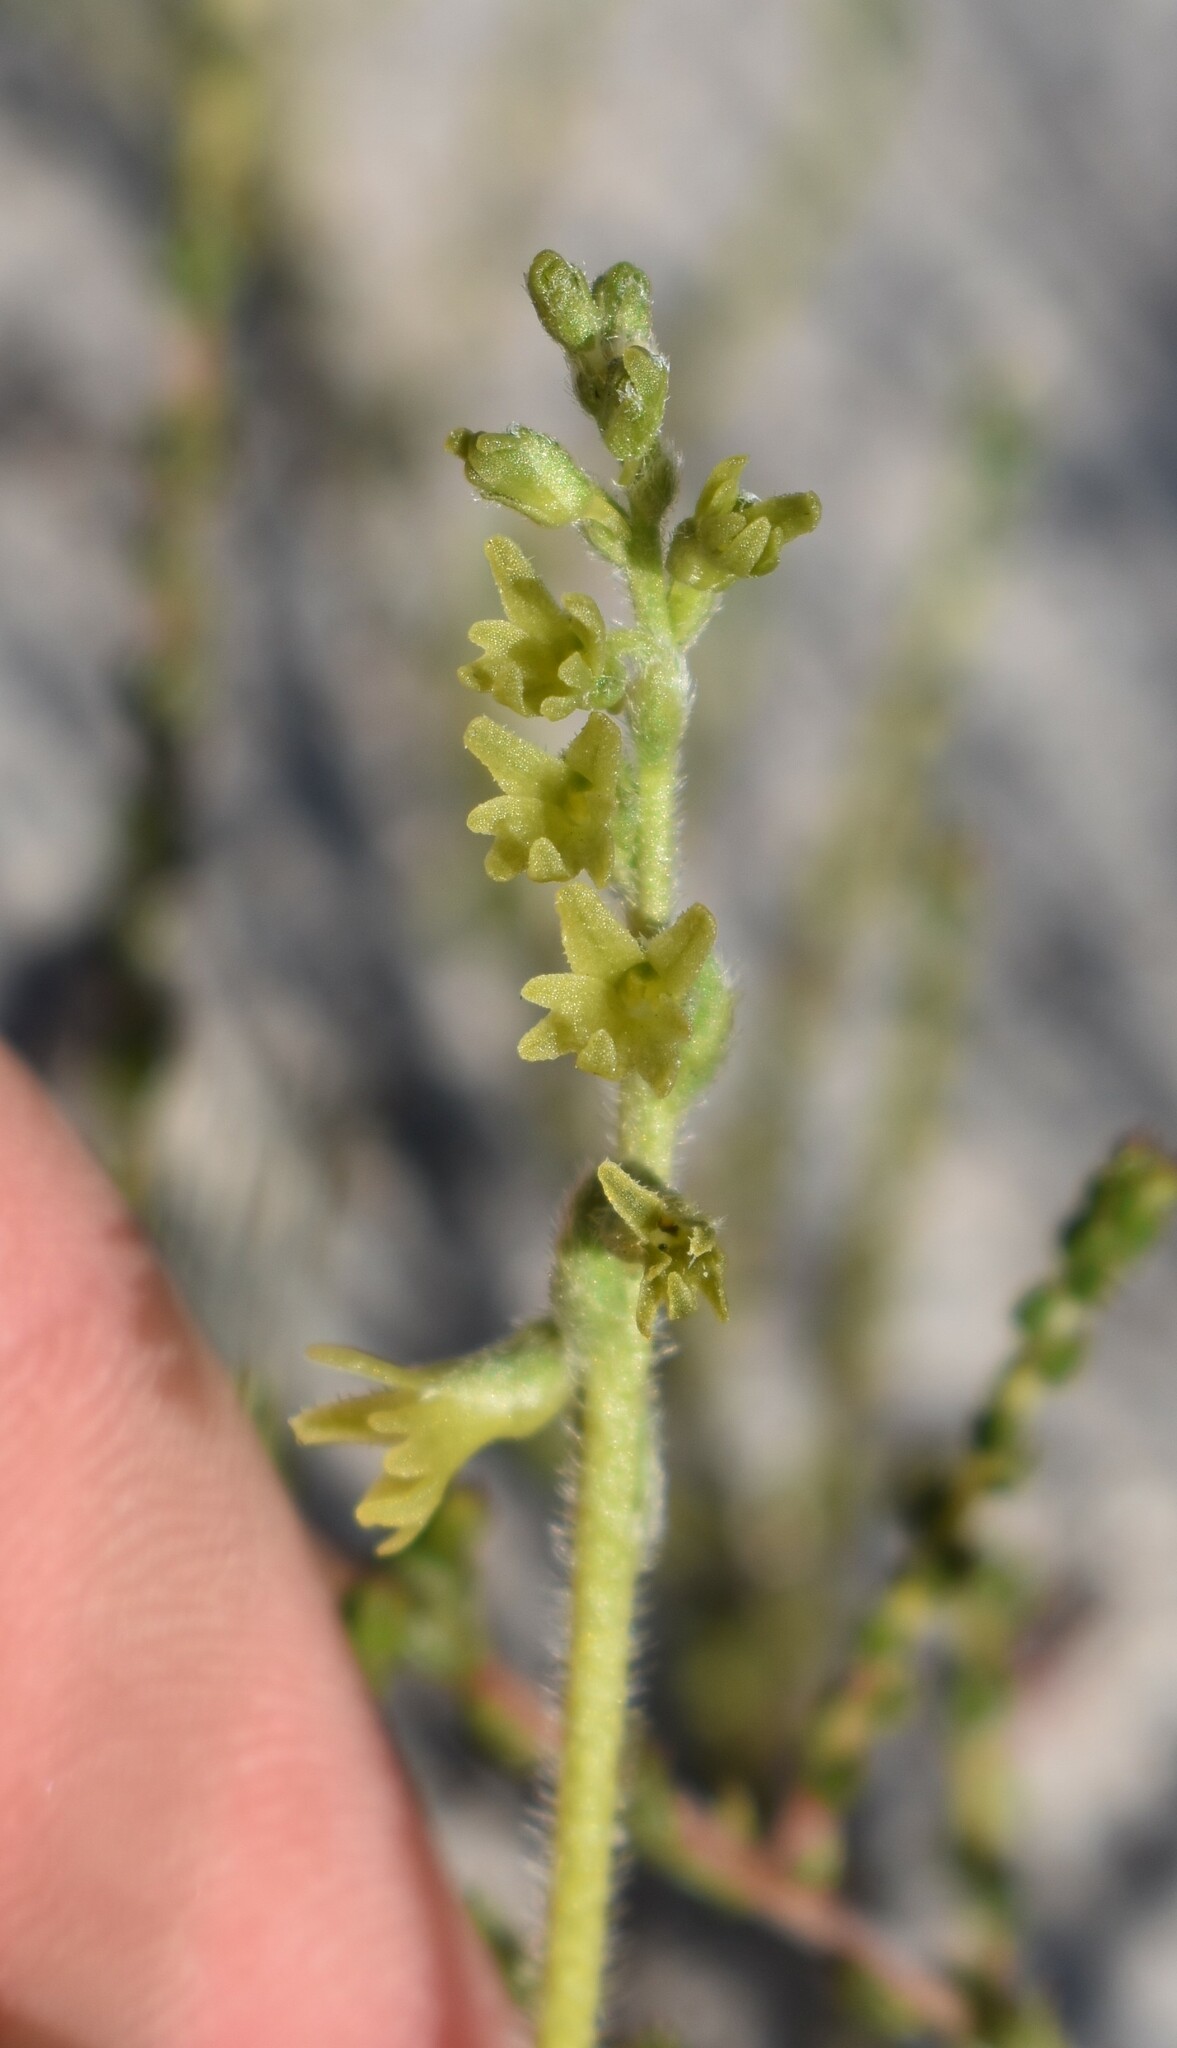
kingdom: Plantae
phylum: Tracheophyta
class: Liliopsida
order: Asparagales
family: Orchidaceae
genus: Holothrix
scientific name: Holothrix cernua
